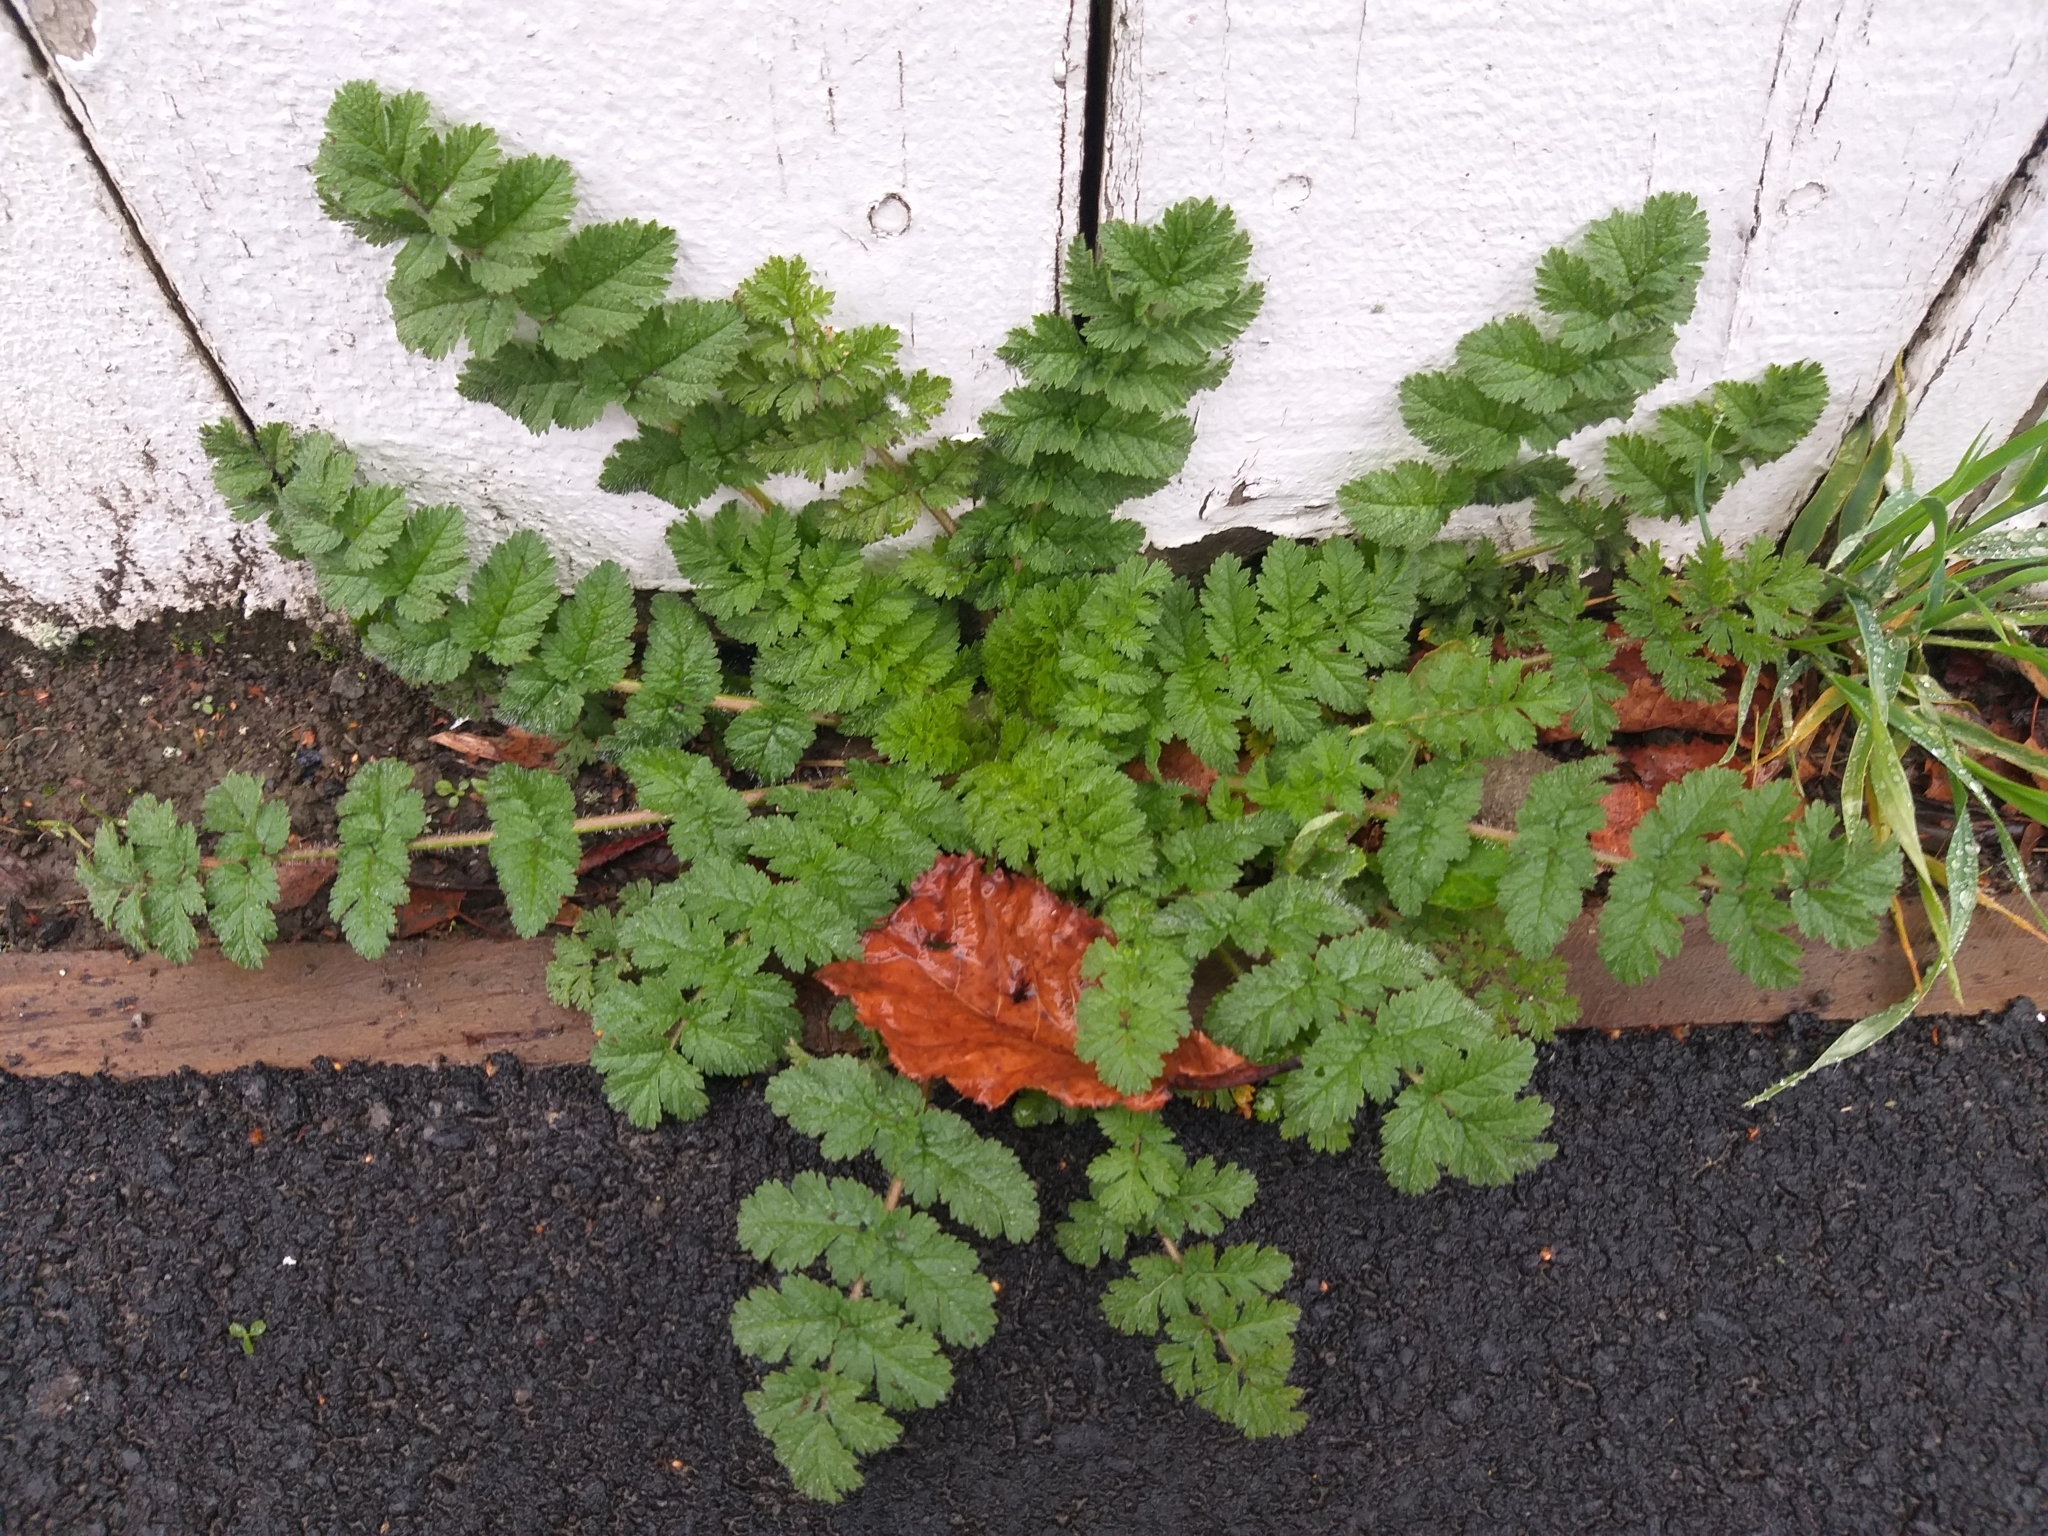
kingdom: Plantae
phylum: Tracheophyta
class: Magnoliopsida
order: Geraniales
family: Geraniaceae
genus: Erodium
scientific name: Erodium moschatum
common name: Musk stork's-bill
